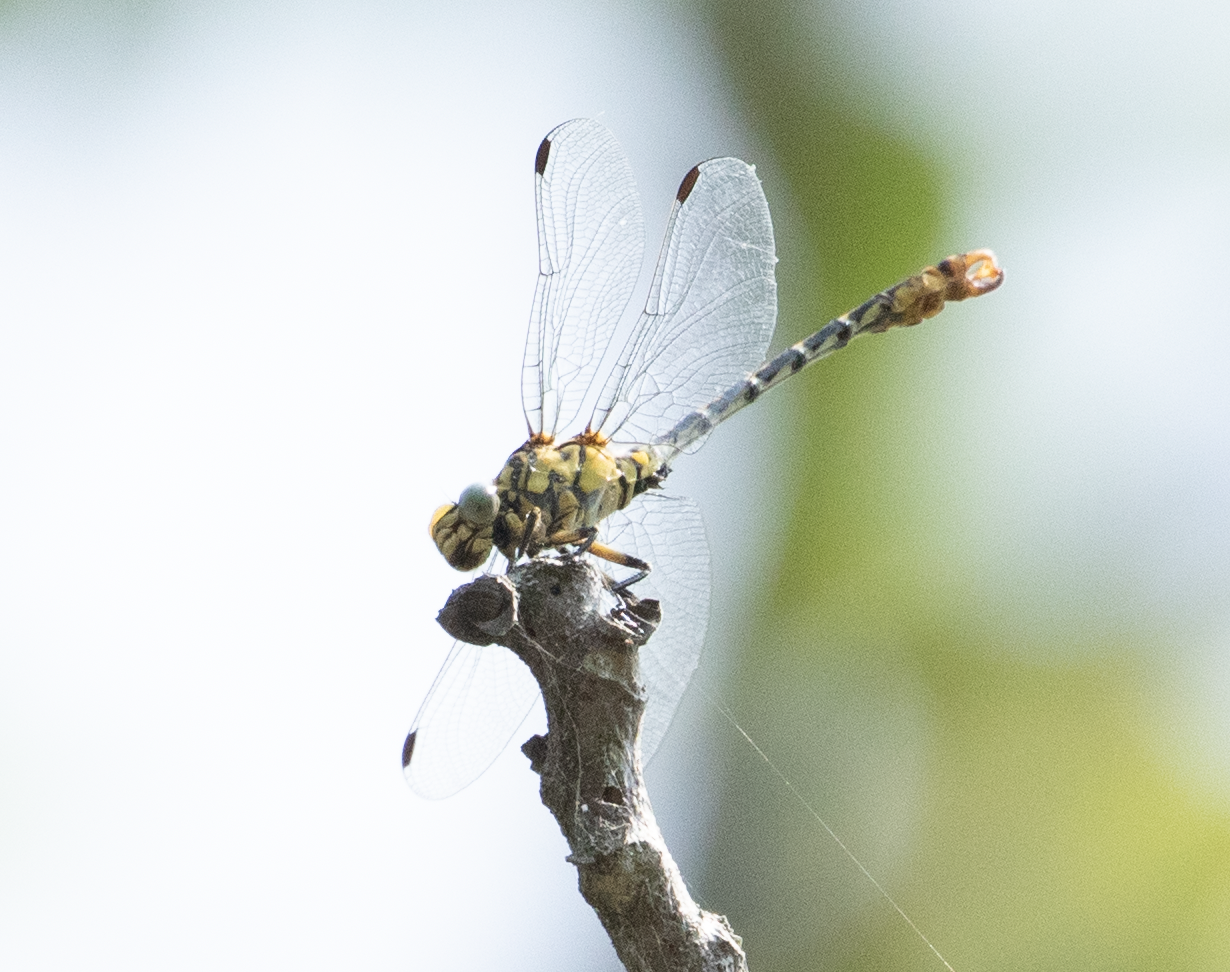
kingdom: Animalia
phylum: Arthropoda
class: Insecta
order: Odonata
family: Gomphidae
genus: Onychogomphus
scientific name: Onychogomphus forcipatus
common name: Small pincertail
